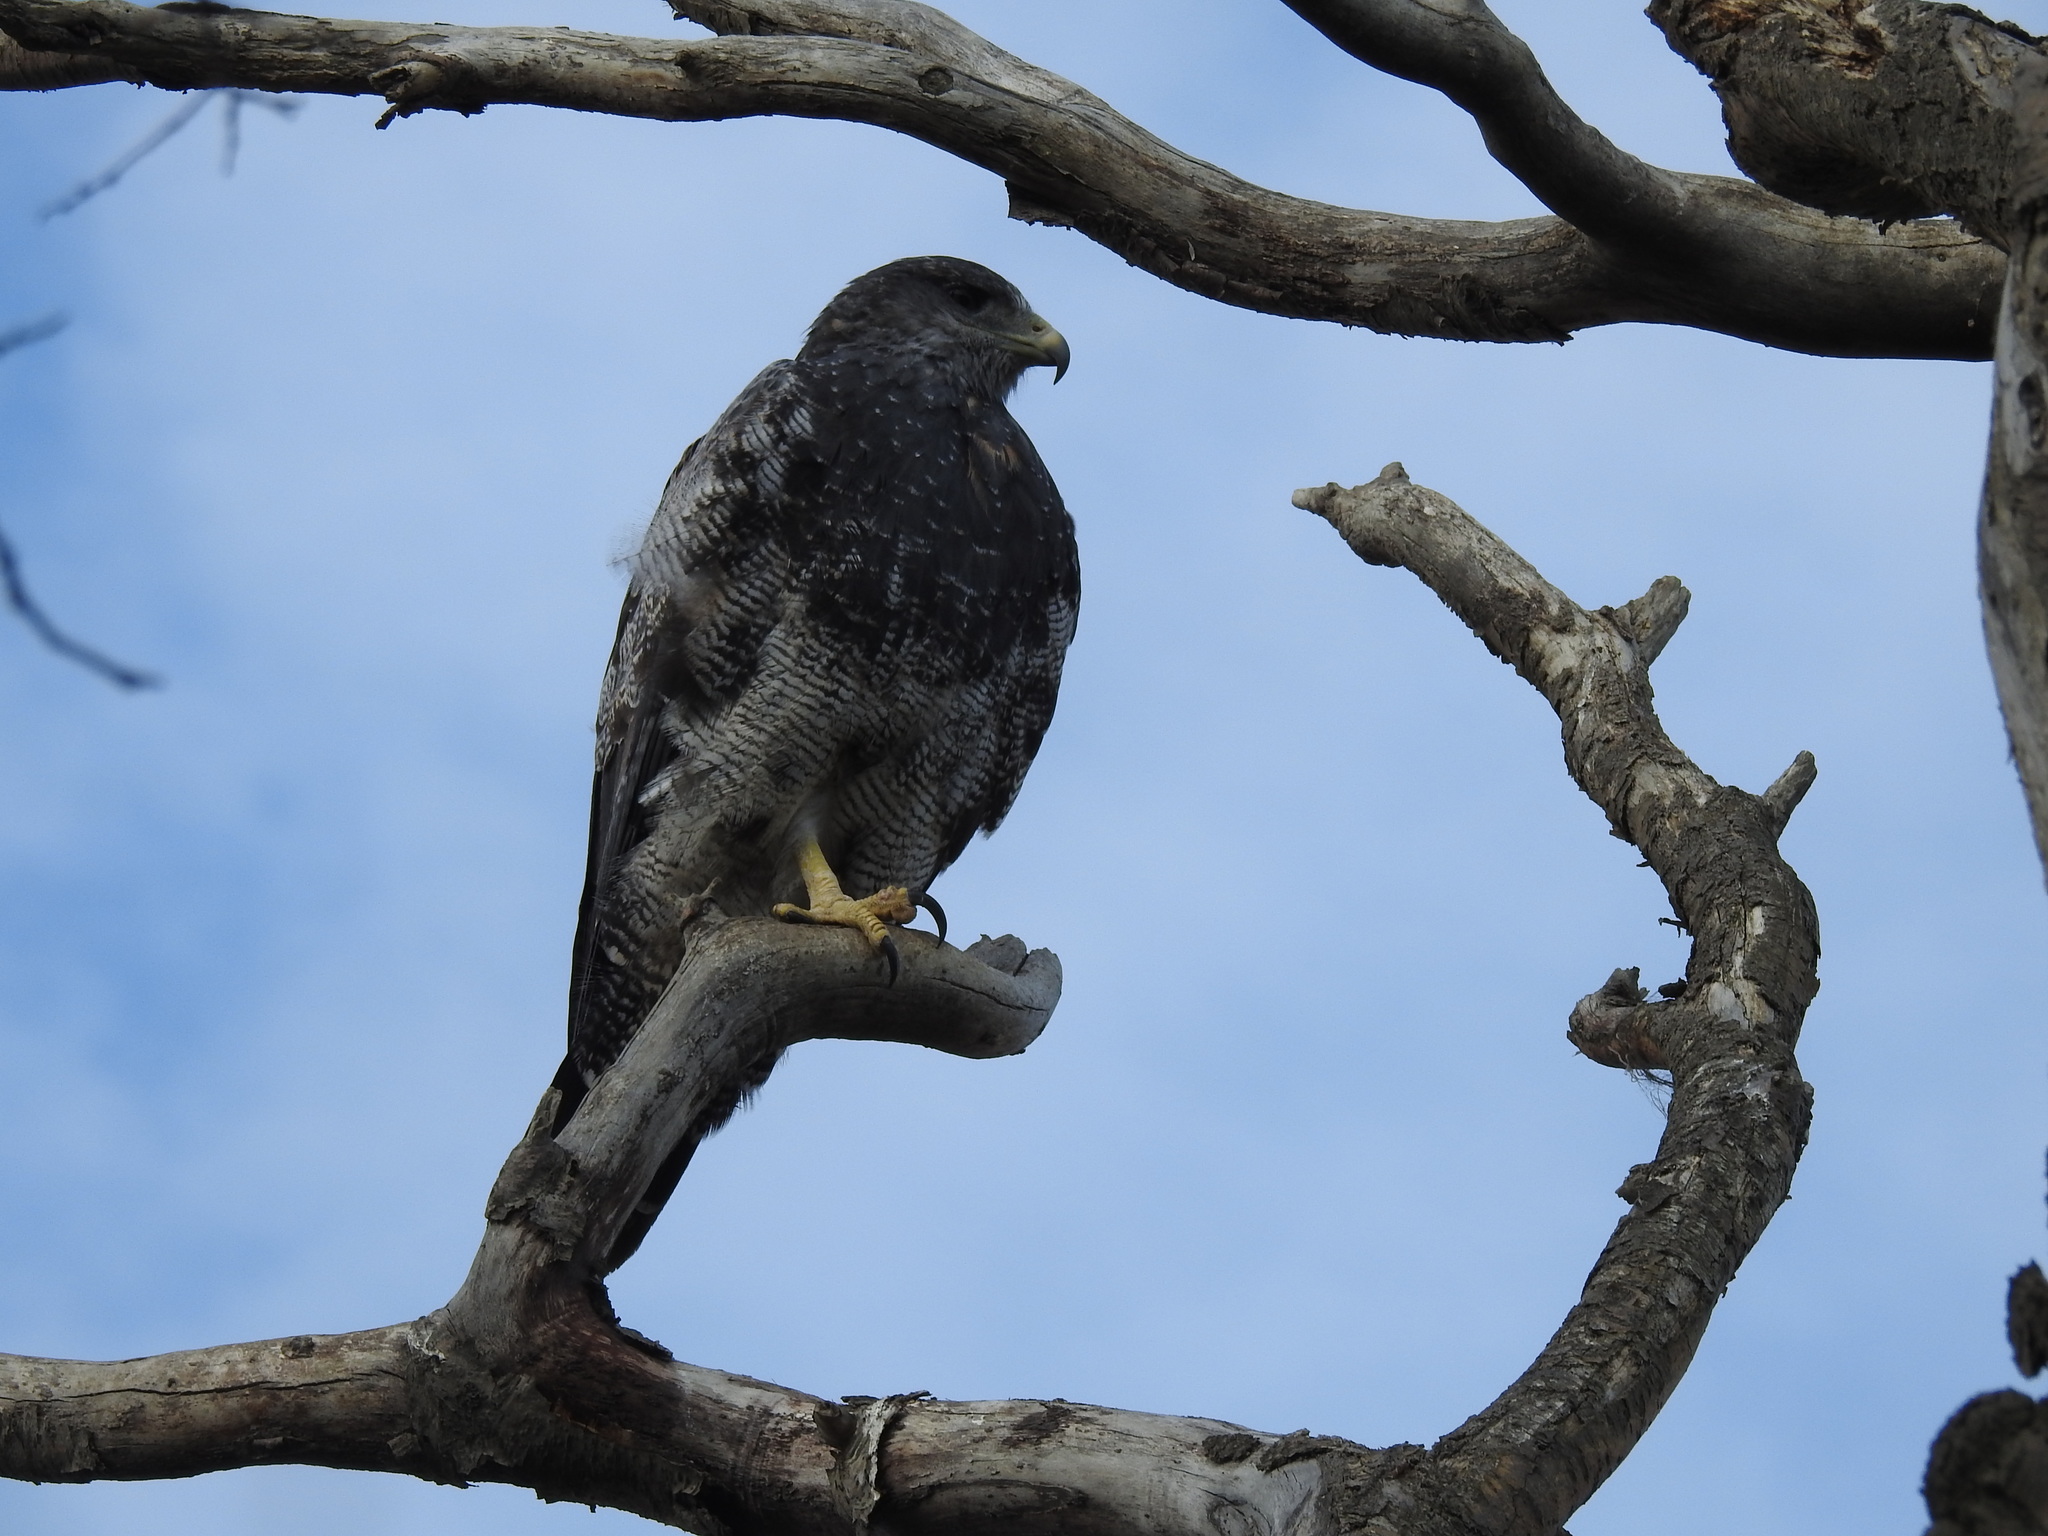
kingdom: Animalia
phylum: Chordata
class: Aves
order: Accipitriformes
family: Accipitridae
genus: Geranoaetus
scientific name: Geranoaetus melanoleucus
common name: Black-chested buzzard-eagle
